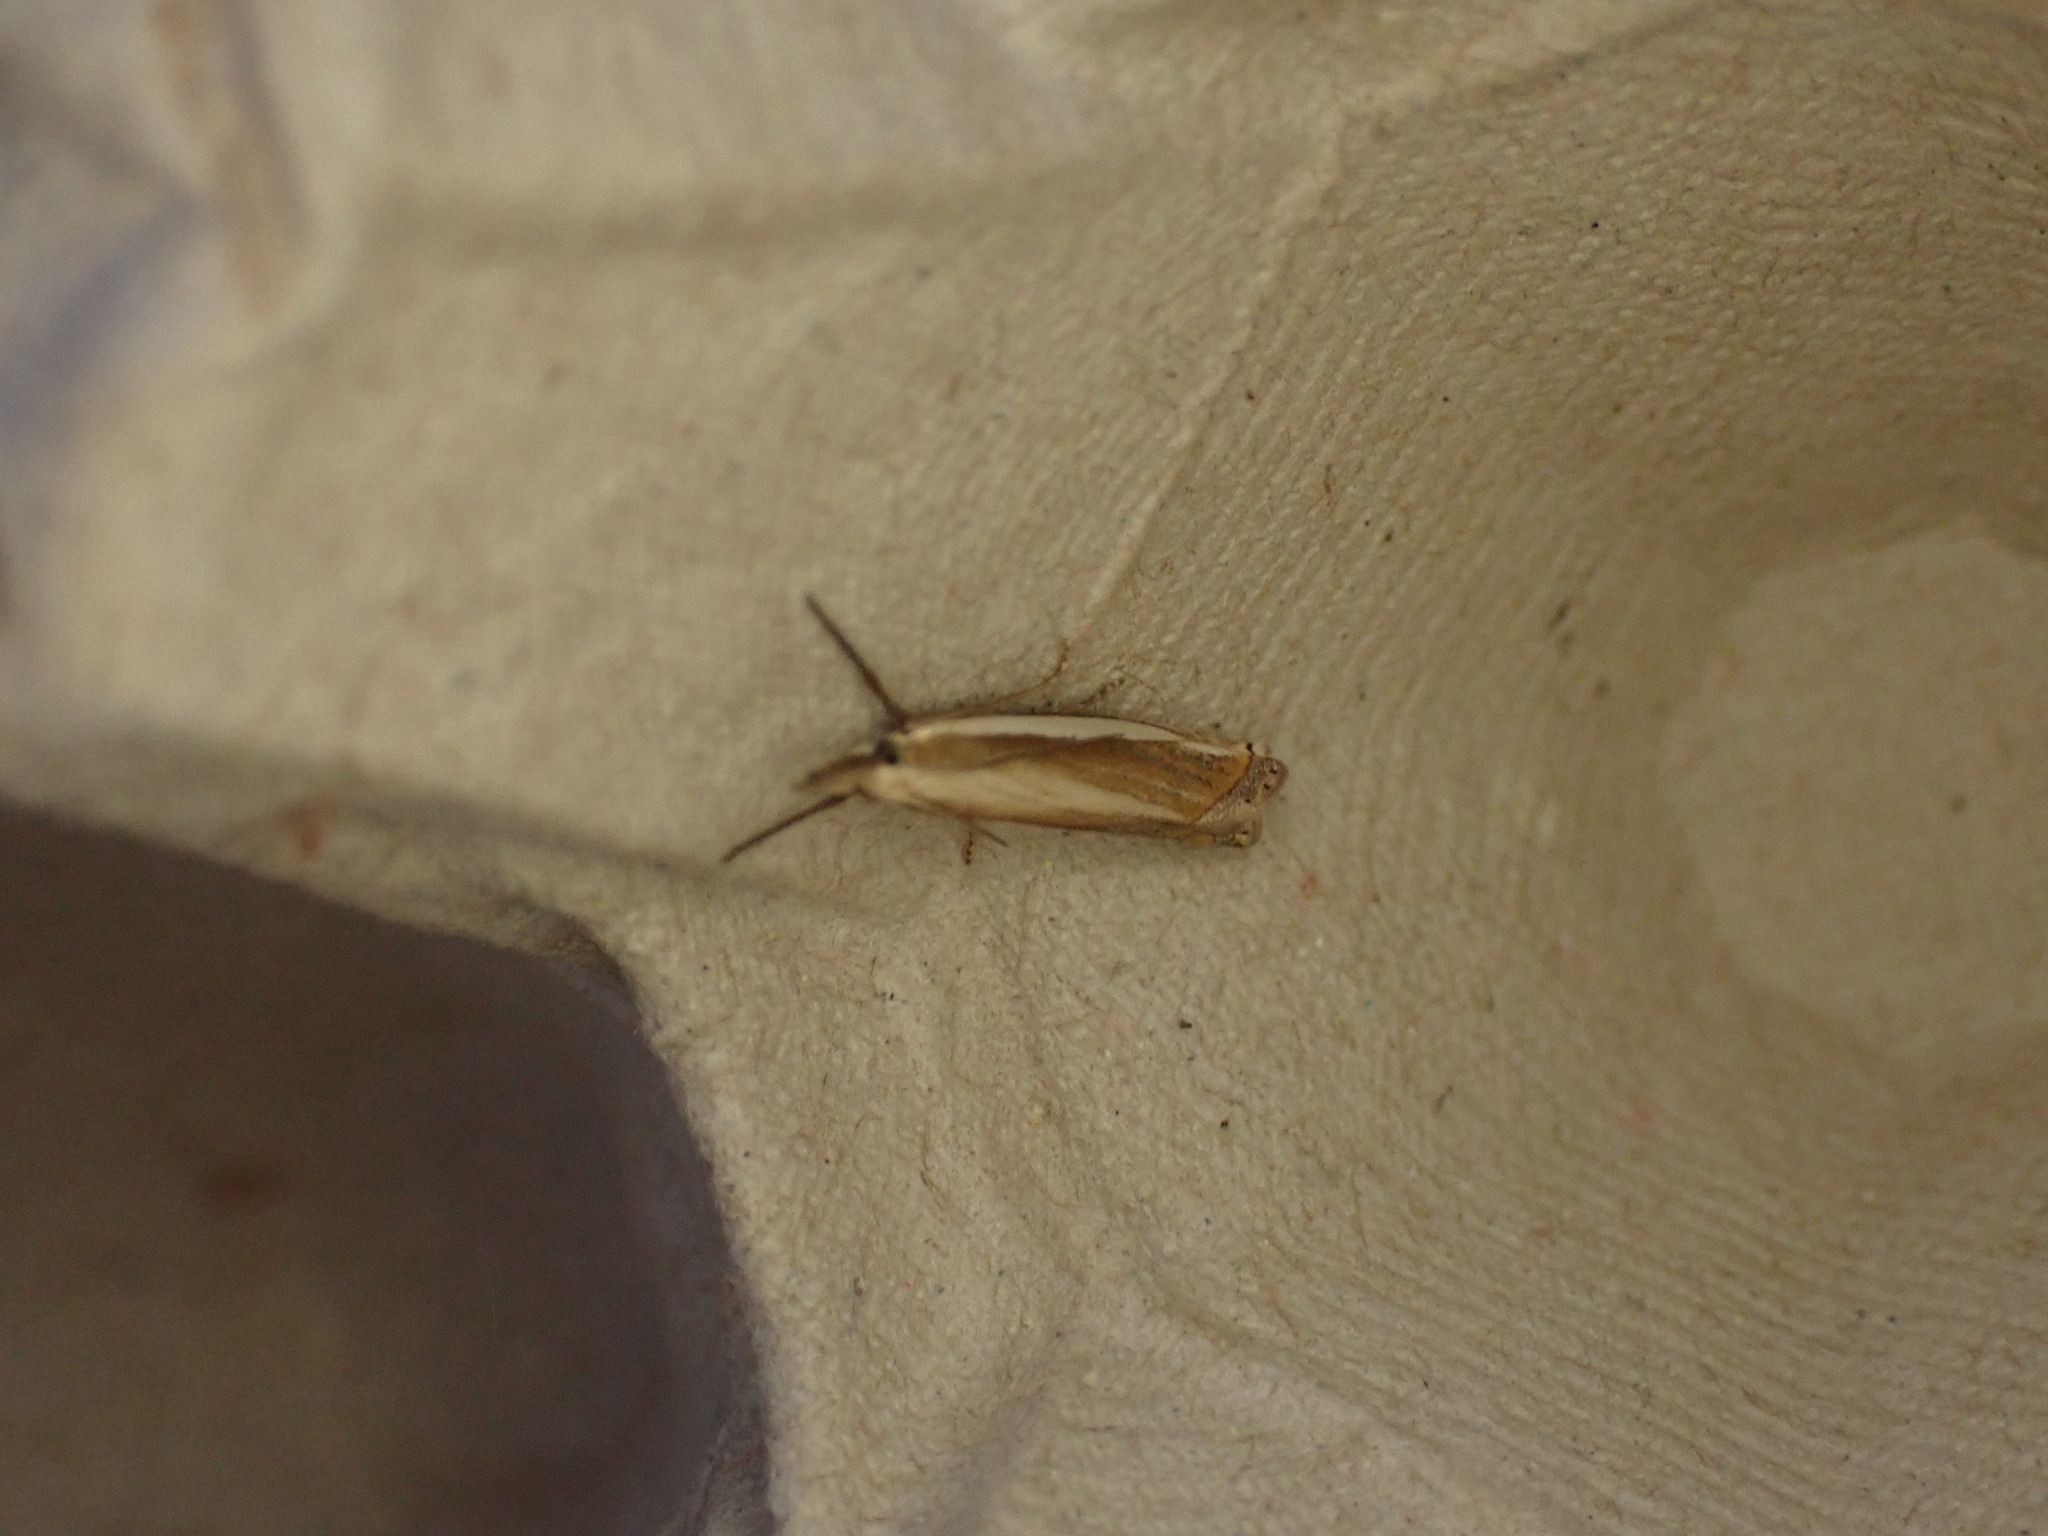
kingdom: Animalia
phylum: Arthropoda
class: Insecta
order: Lepidoptera
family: Crambidae
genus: Crambus
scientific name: Crambus pascuella
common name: Inlaid grass-veneer
